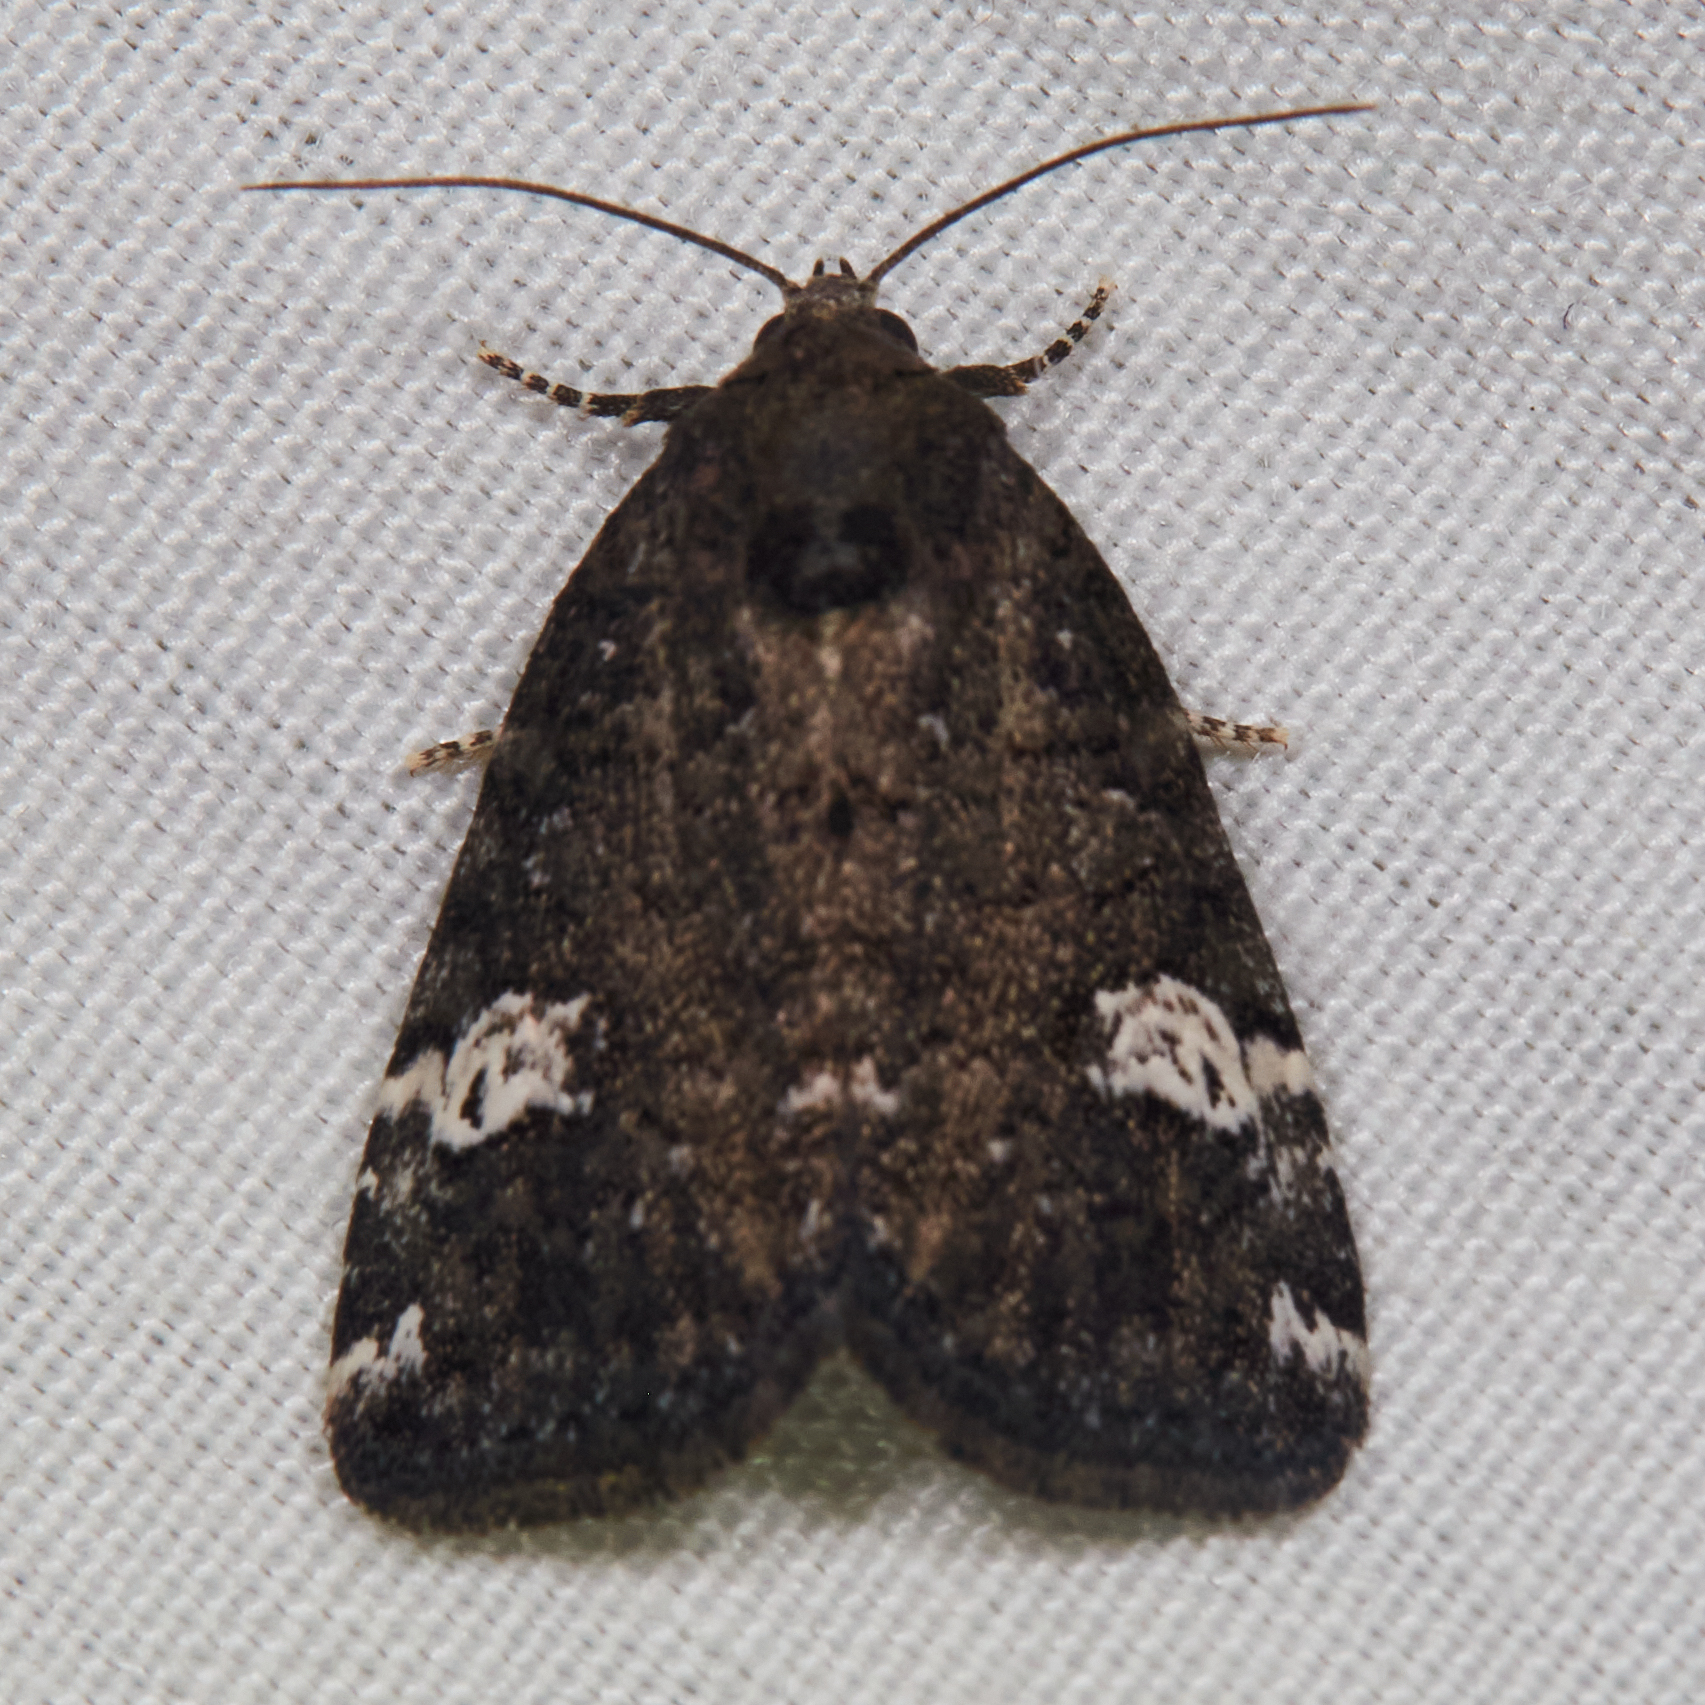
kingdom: Animalia
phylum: Arthropoda
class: Insecta
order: Lepidoptera
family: Noctuidae
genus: Anterastria
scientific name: Anterastria teratophora
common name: Gray marvel moth
